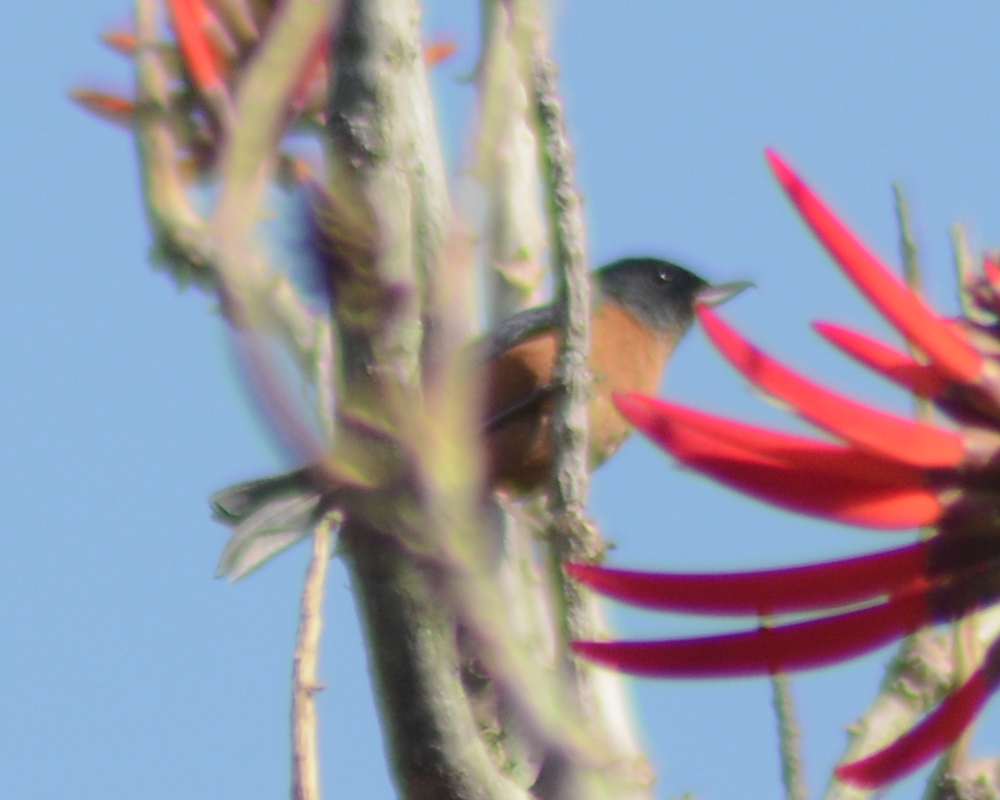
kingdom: Animalia
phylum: Chordata
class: Aves
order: Passeriformes
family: Thraupidae
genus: Diglossa
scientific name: Diglossa baritula
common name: Cinnamon-bellied flowerpiercer
